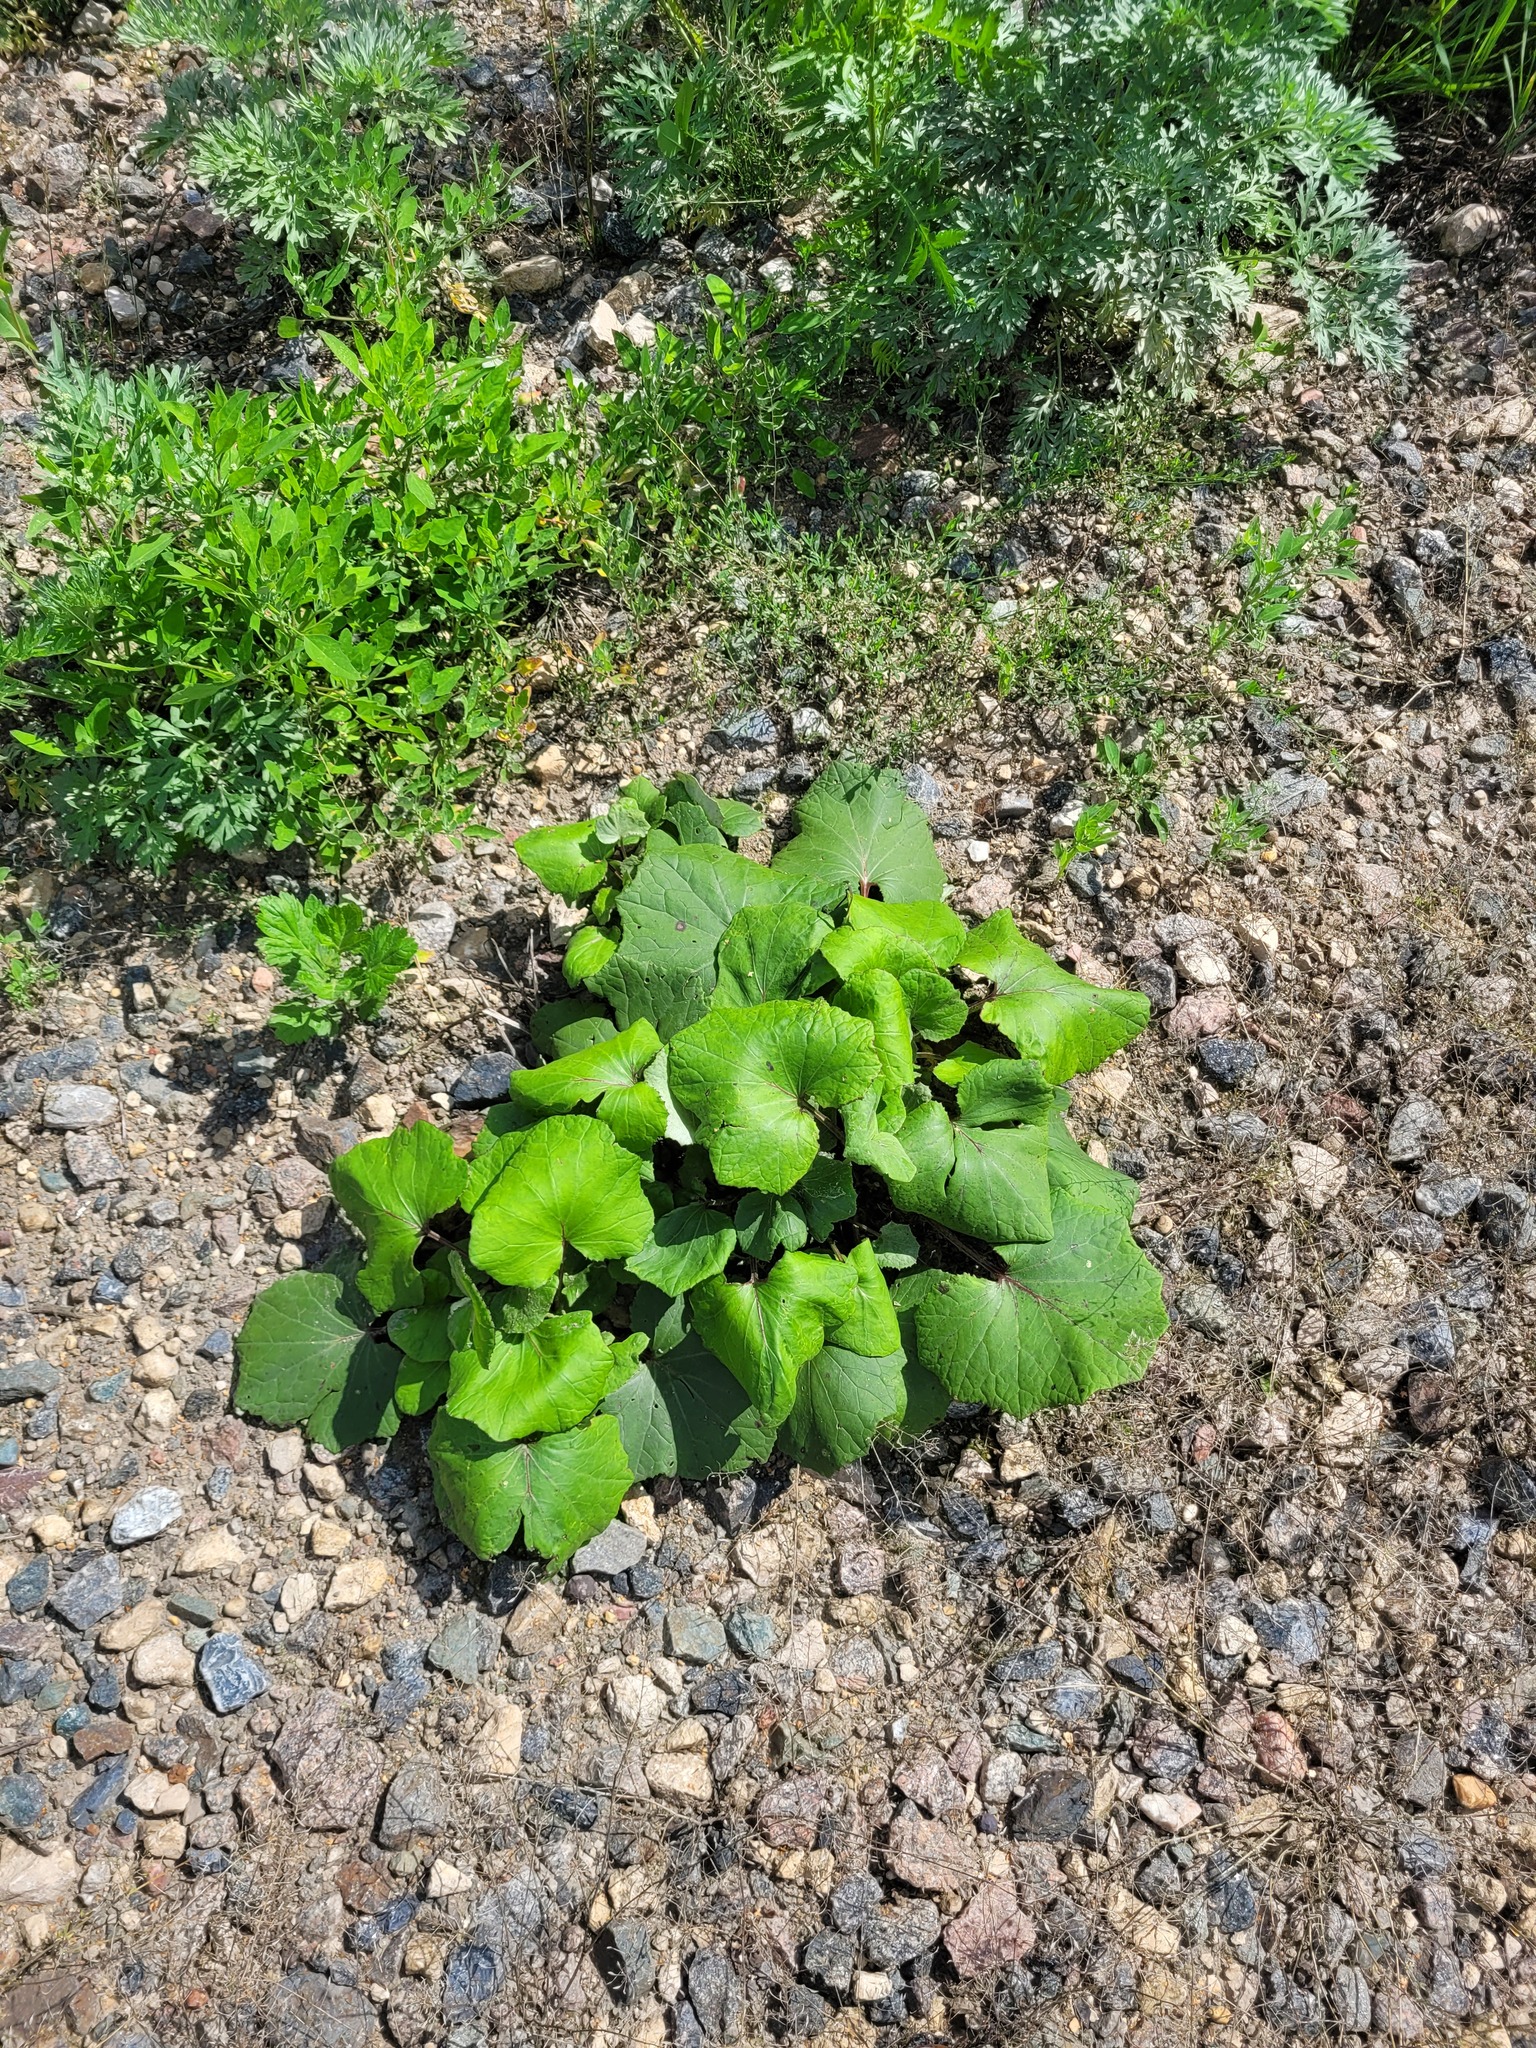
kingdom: Plantae
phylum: Tracheophyta
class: Magnoliopsida
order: Asterales
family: Asteraceae
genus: Tussilago
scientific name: Tussilago farfara
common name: Coltsfoot
